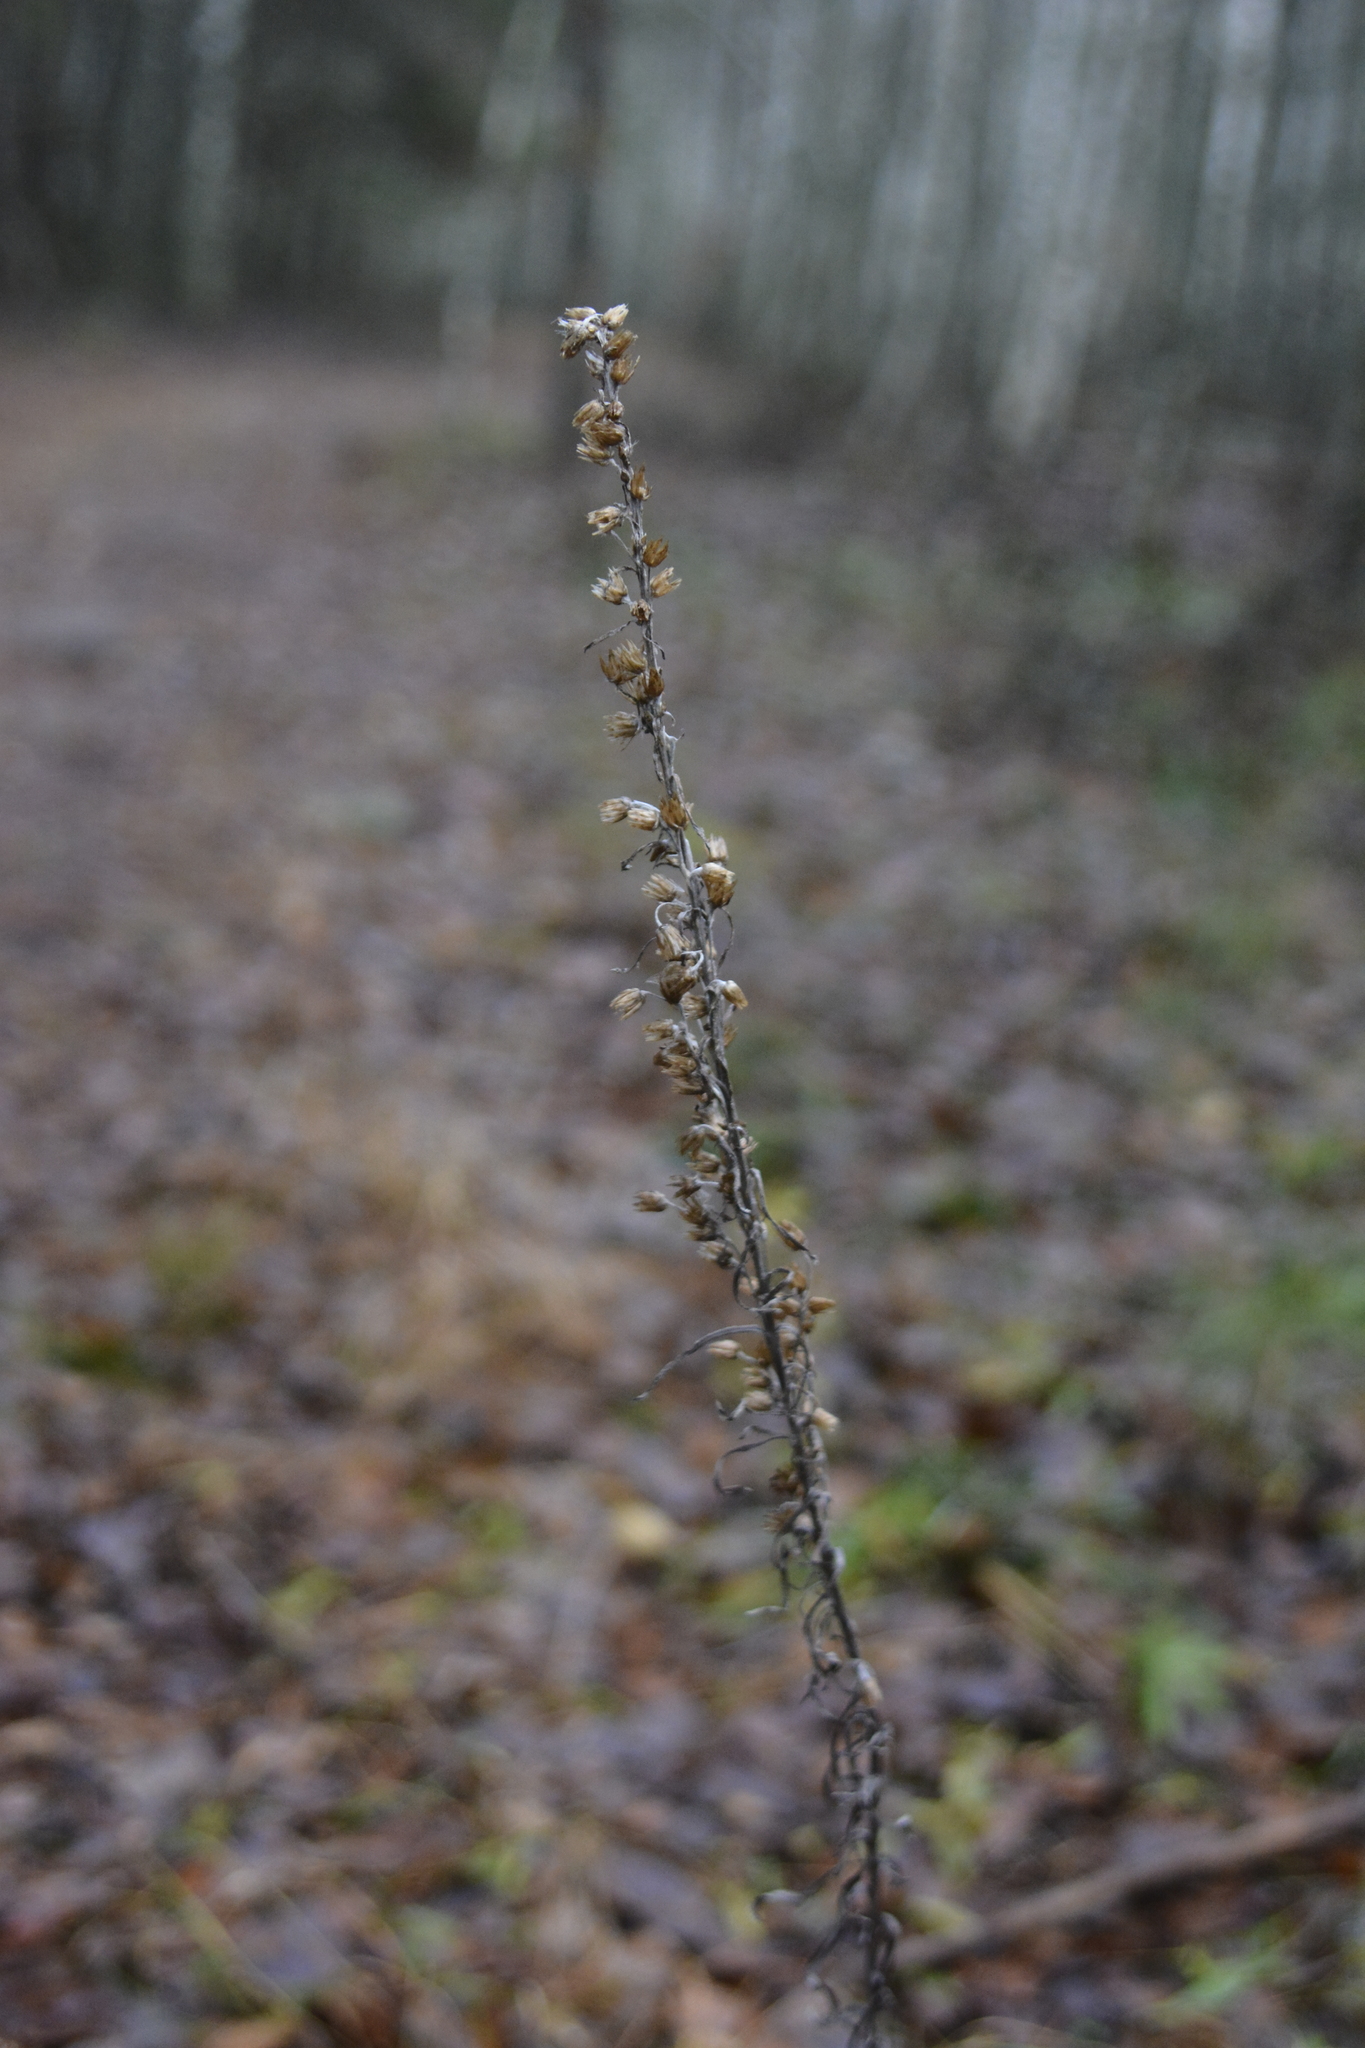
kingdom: Plantae
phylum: Tracheophyta
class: Magnoliopsida
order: Asterales
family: Asteraceae
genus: Omalotheca
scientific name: Omalotheca sylvatica
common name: Heath cudweed
